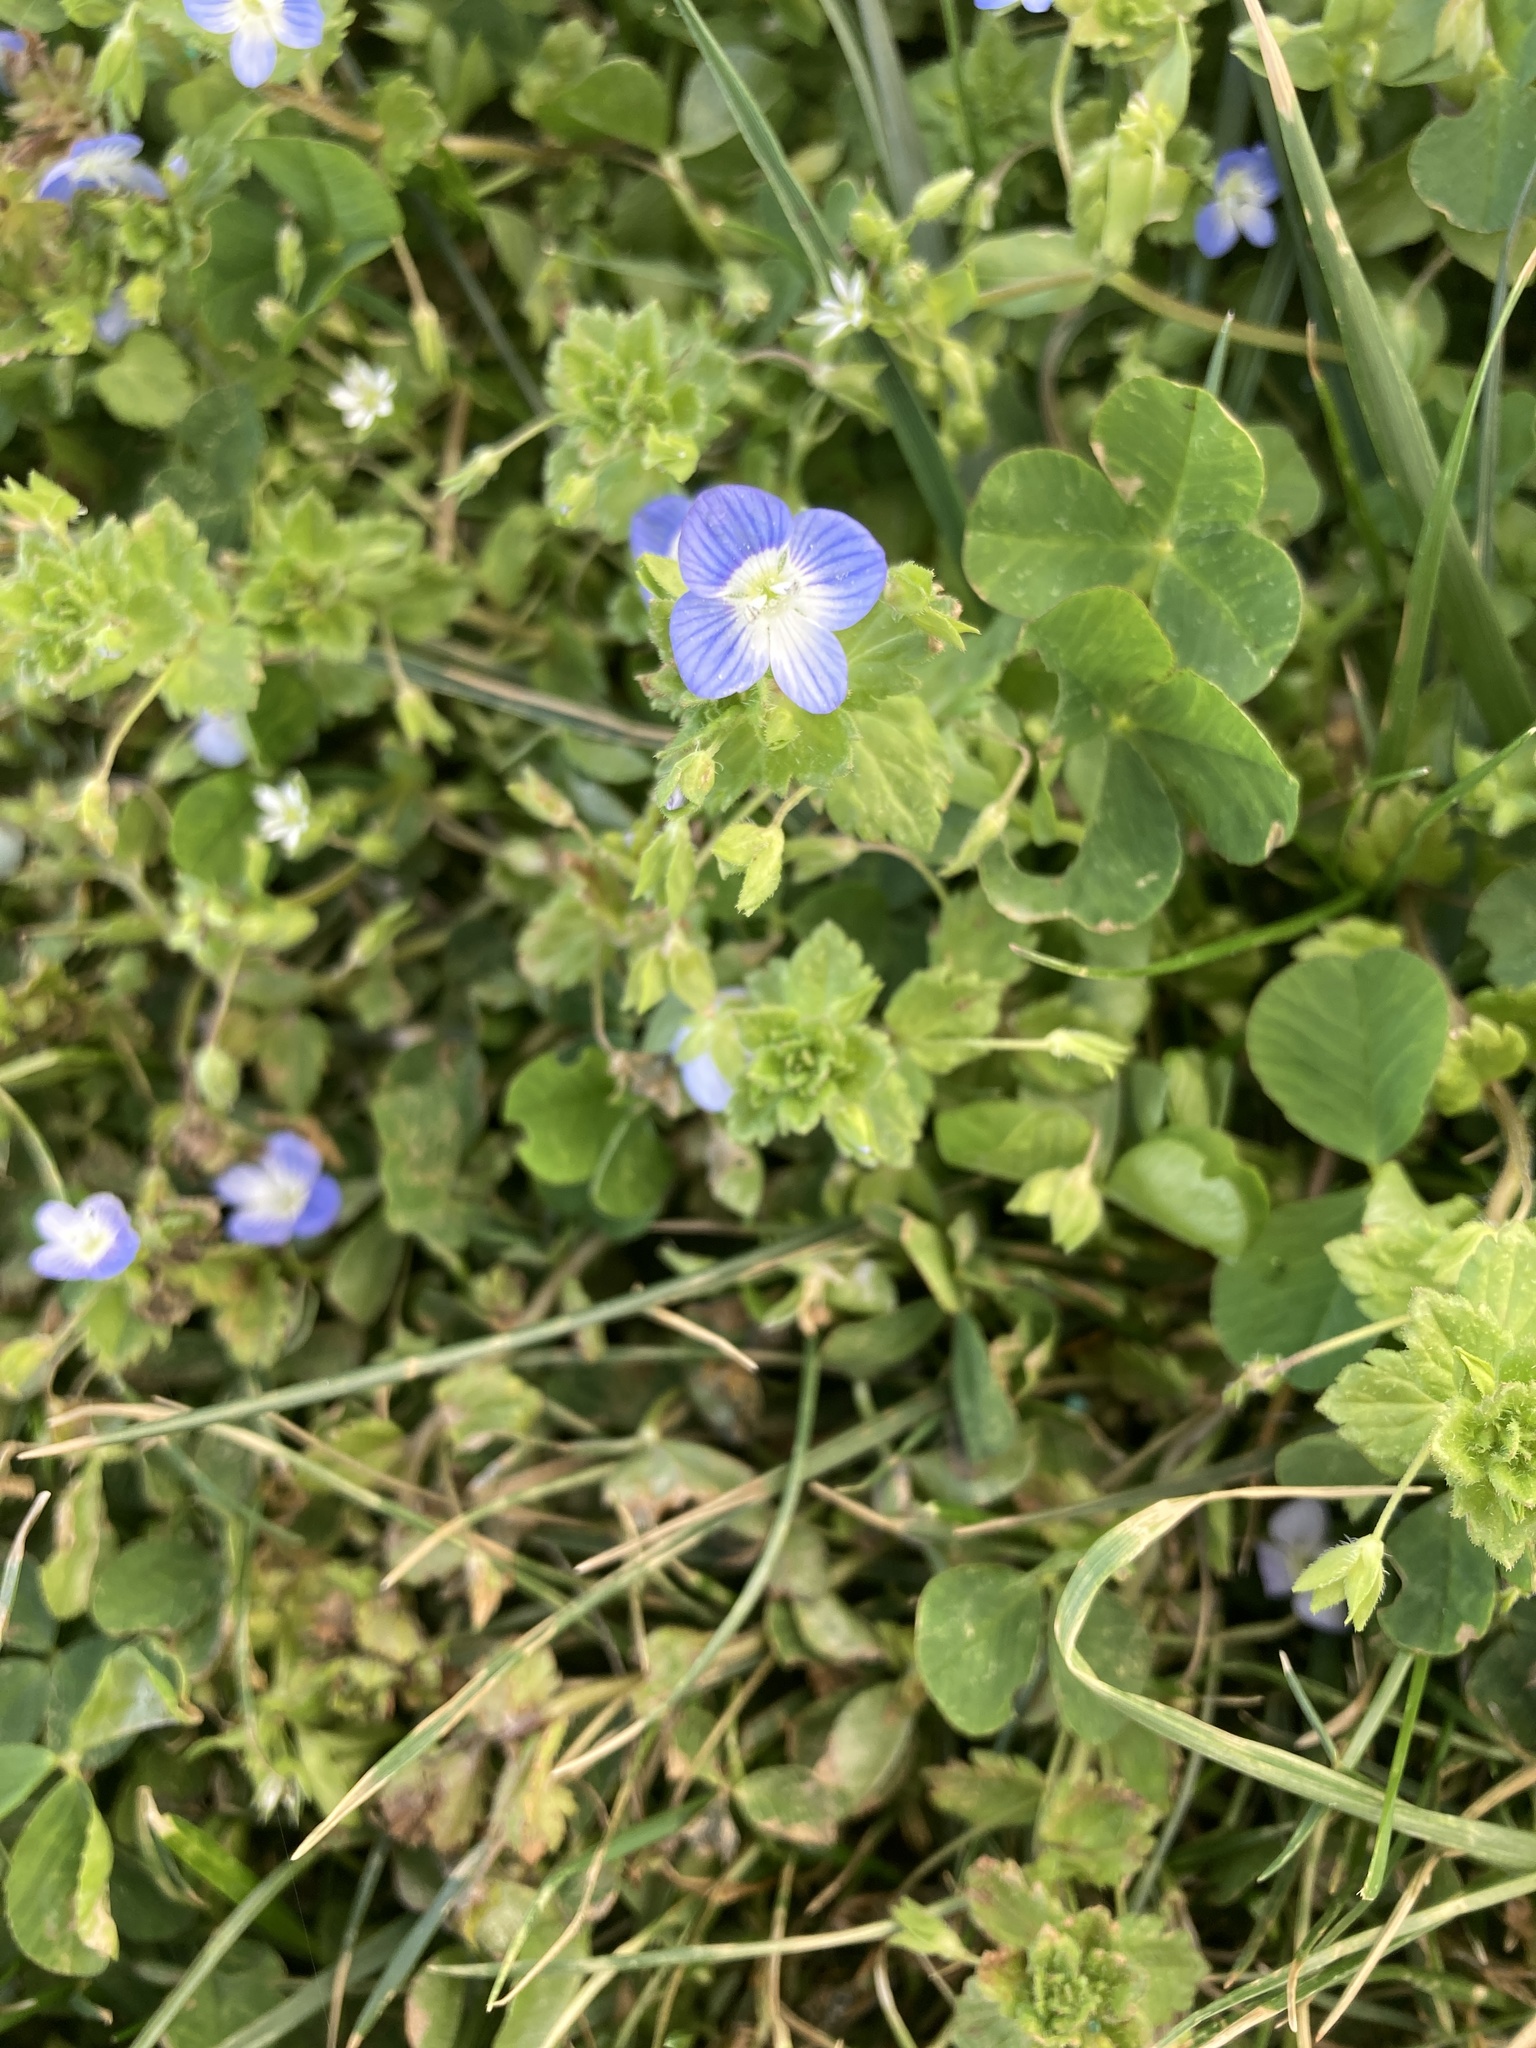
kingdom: Plantae
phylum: Tracheophyta
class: Magnoliopsida
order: Lamiales
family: Plantaginaceae
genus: Veronica
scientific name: Veronica persica
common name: Common field-speedwell
